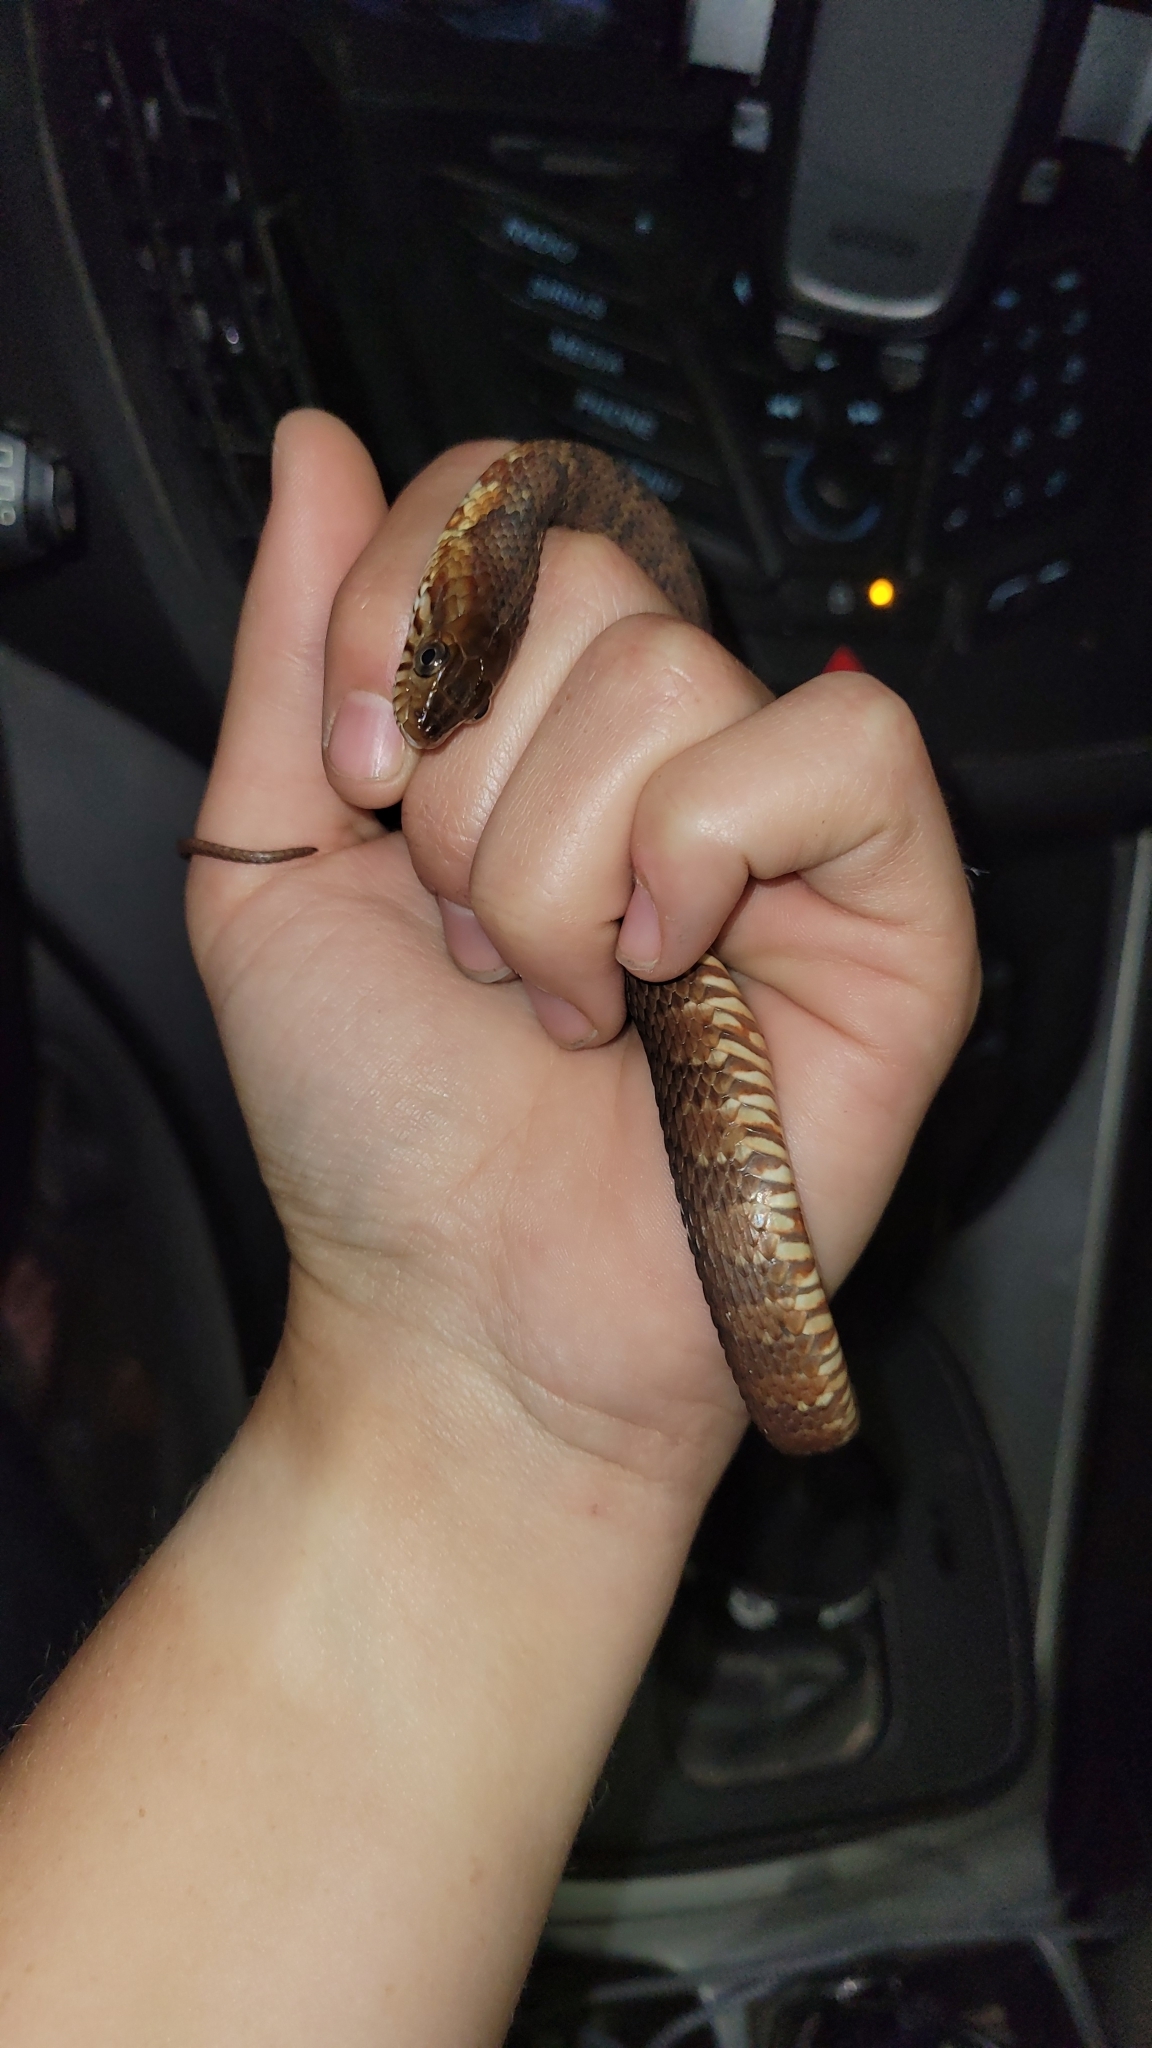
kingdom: Animalia
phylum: Chordata
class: Squamata
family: Colubridae
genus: Nerodia
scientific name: Nerodia fasciata
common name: Southern water snake
